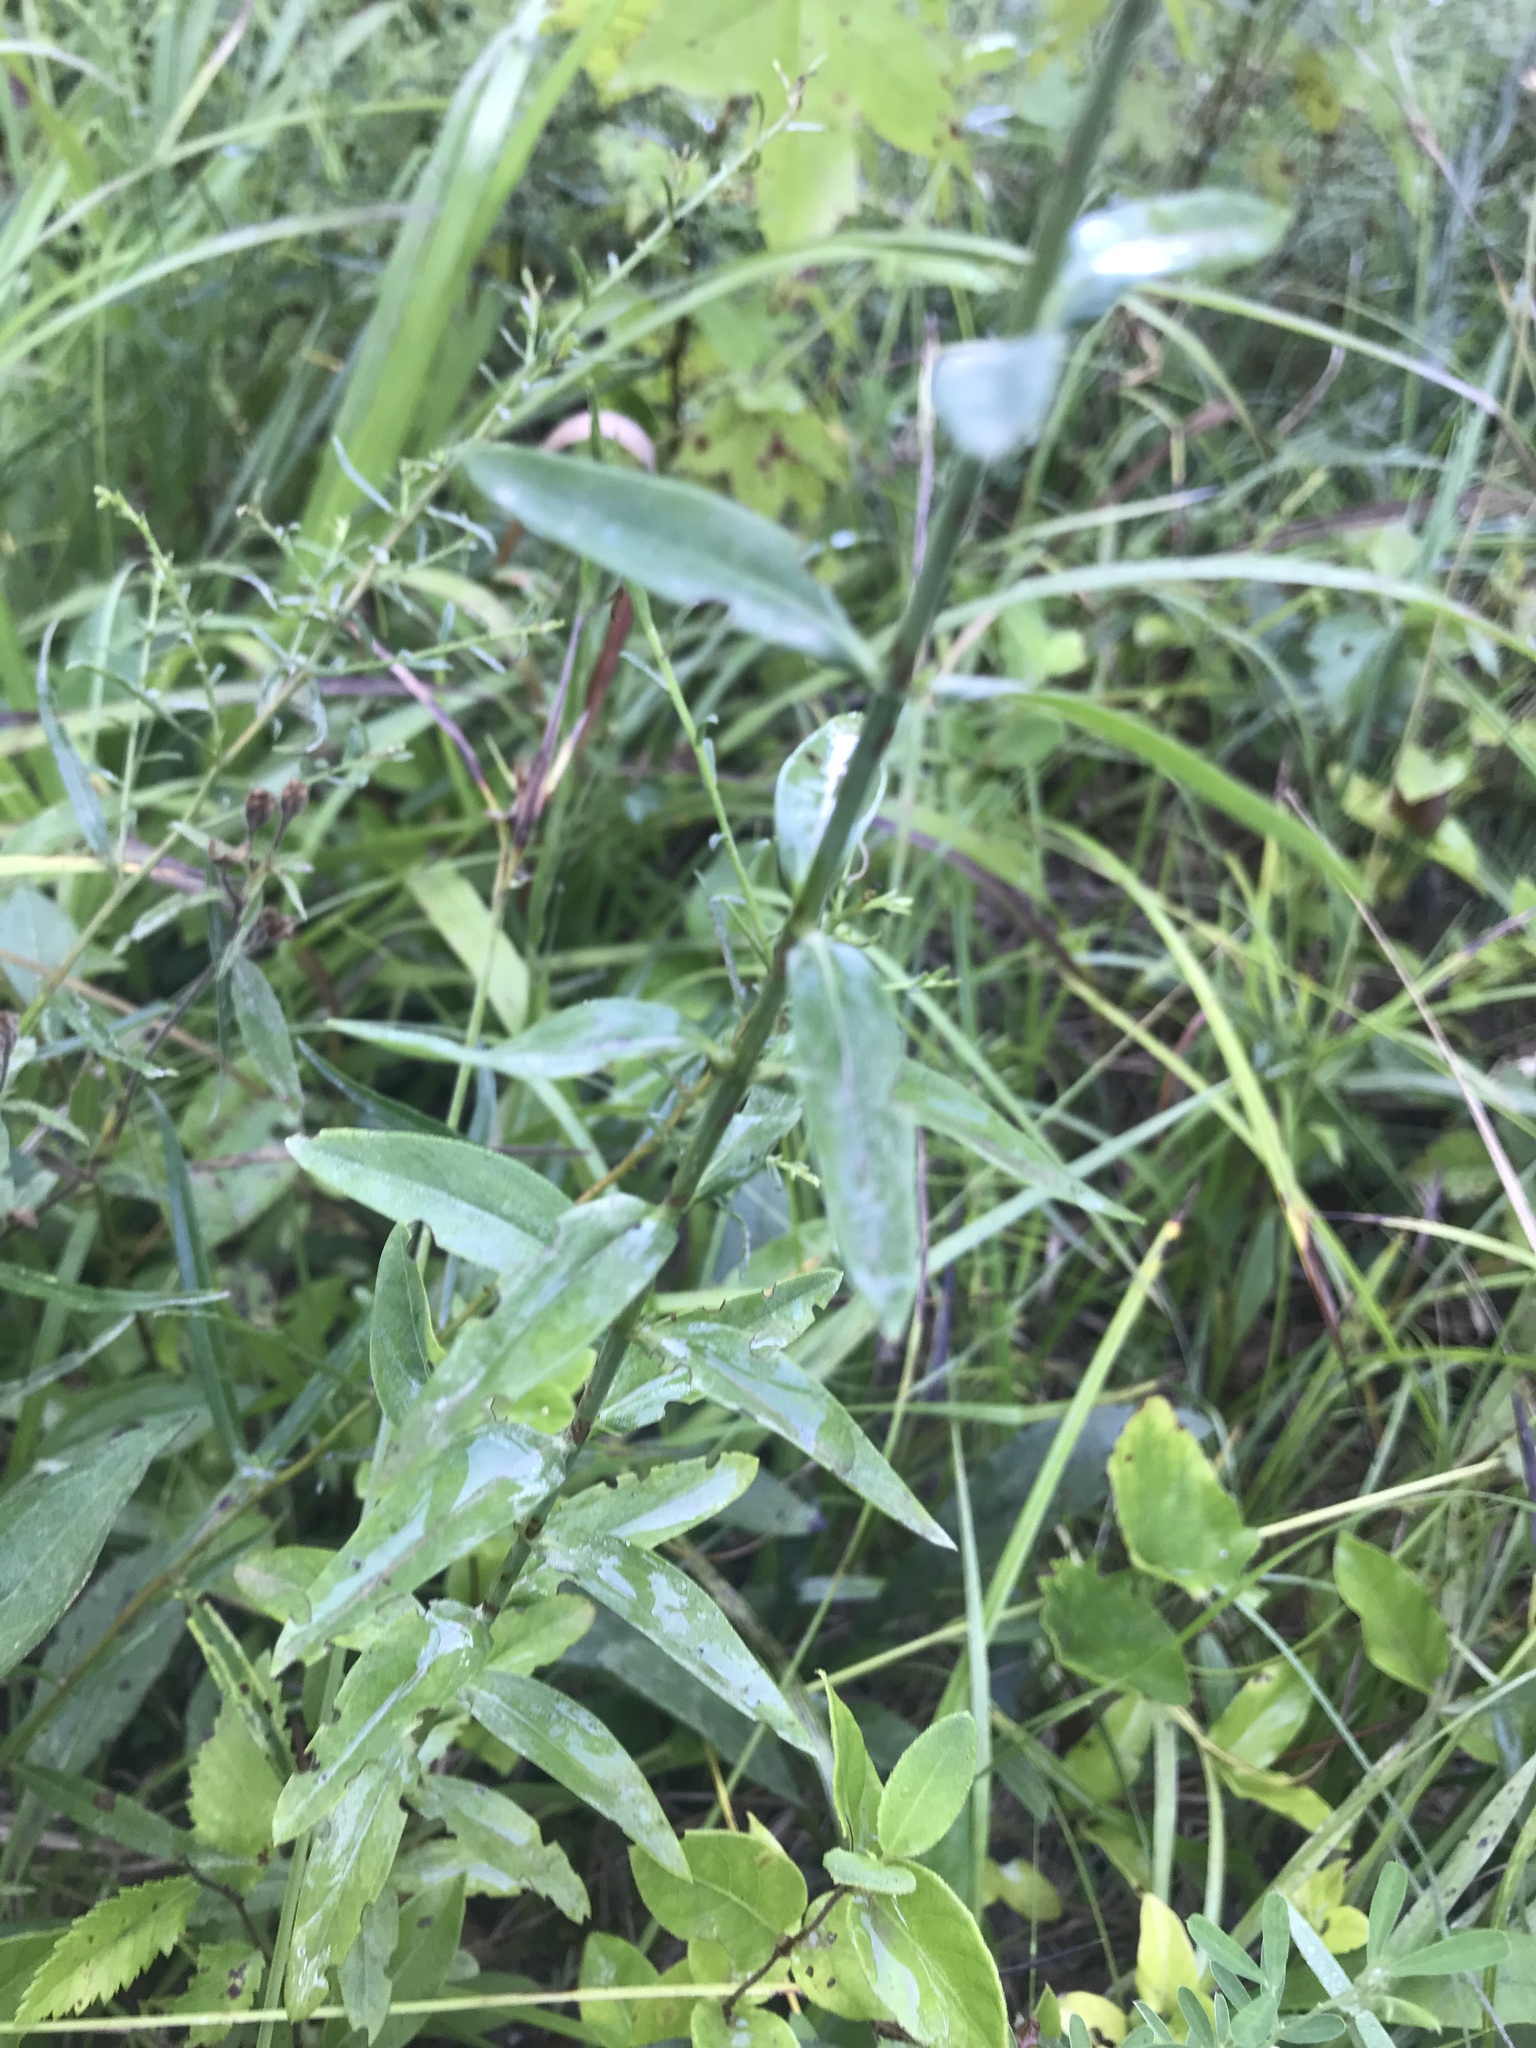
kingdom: Plantae
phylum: Tracheophyta
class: Magnoliopsida
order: Malpighiales
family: Hypericaceae
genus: Hypericum
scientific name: Hypericum virgatum
